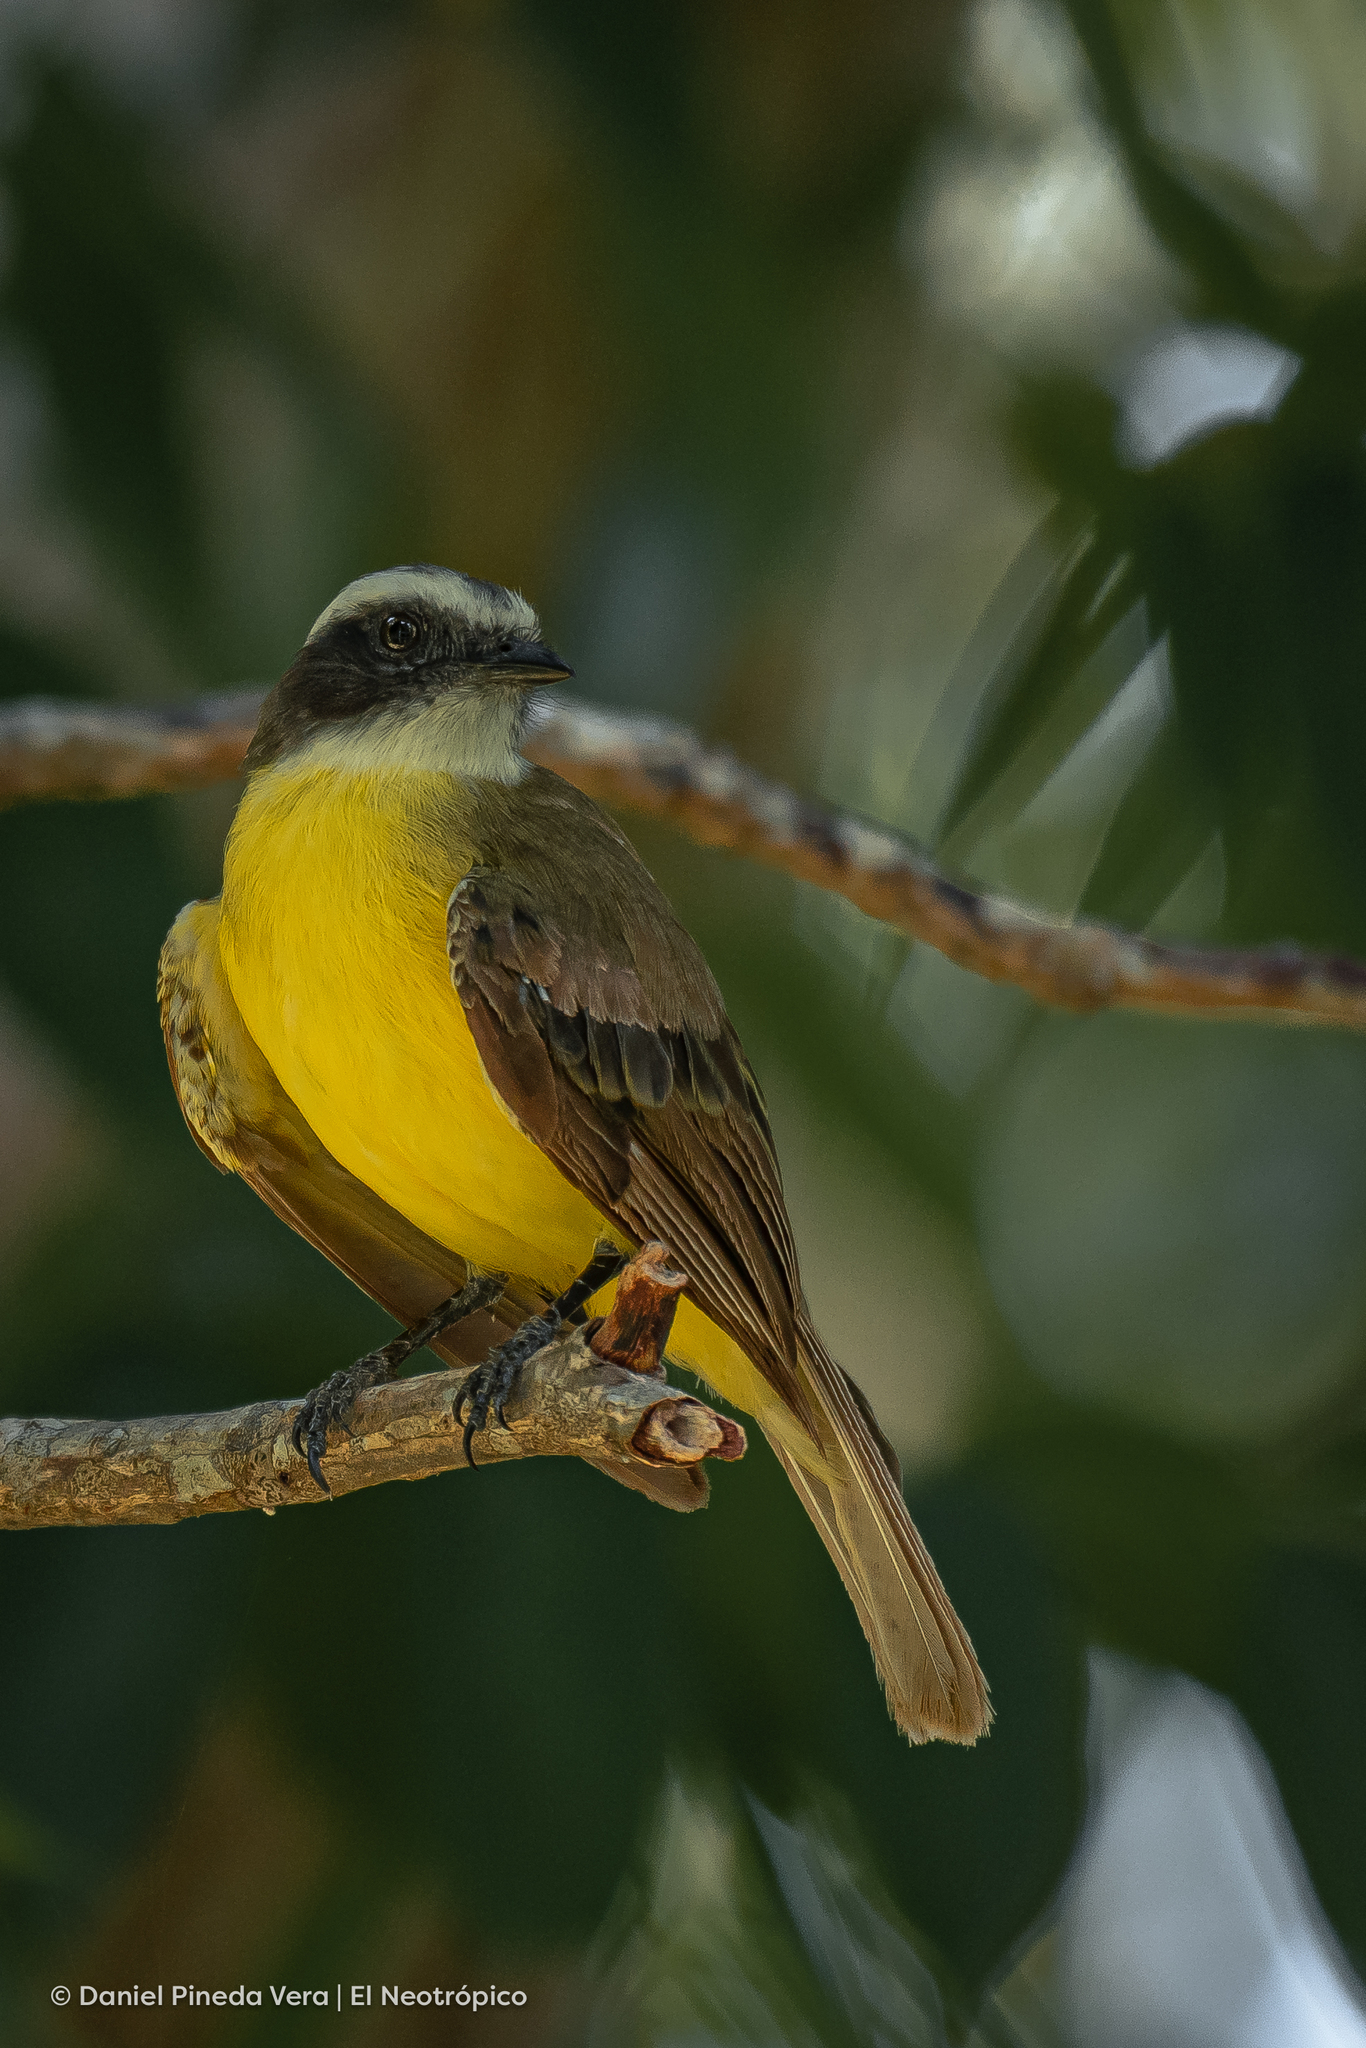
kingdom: Animalia
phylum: Chordata
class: Aves
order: Passeriformes
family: Tyrannidae
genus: Myiozetetes
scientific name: Myiozetetes similis
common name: Social flycatcher
